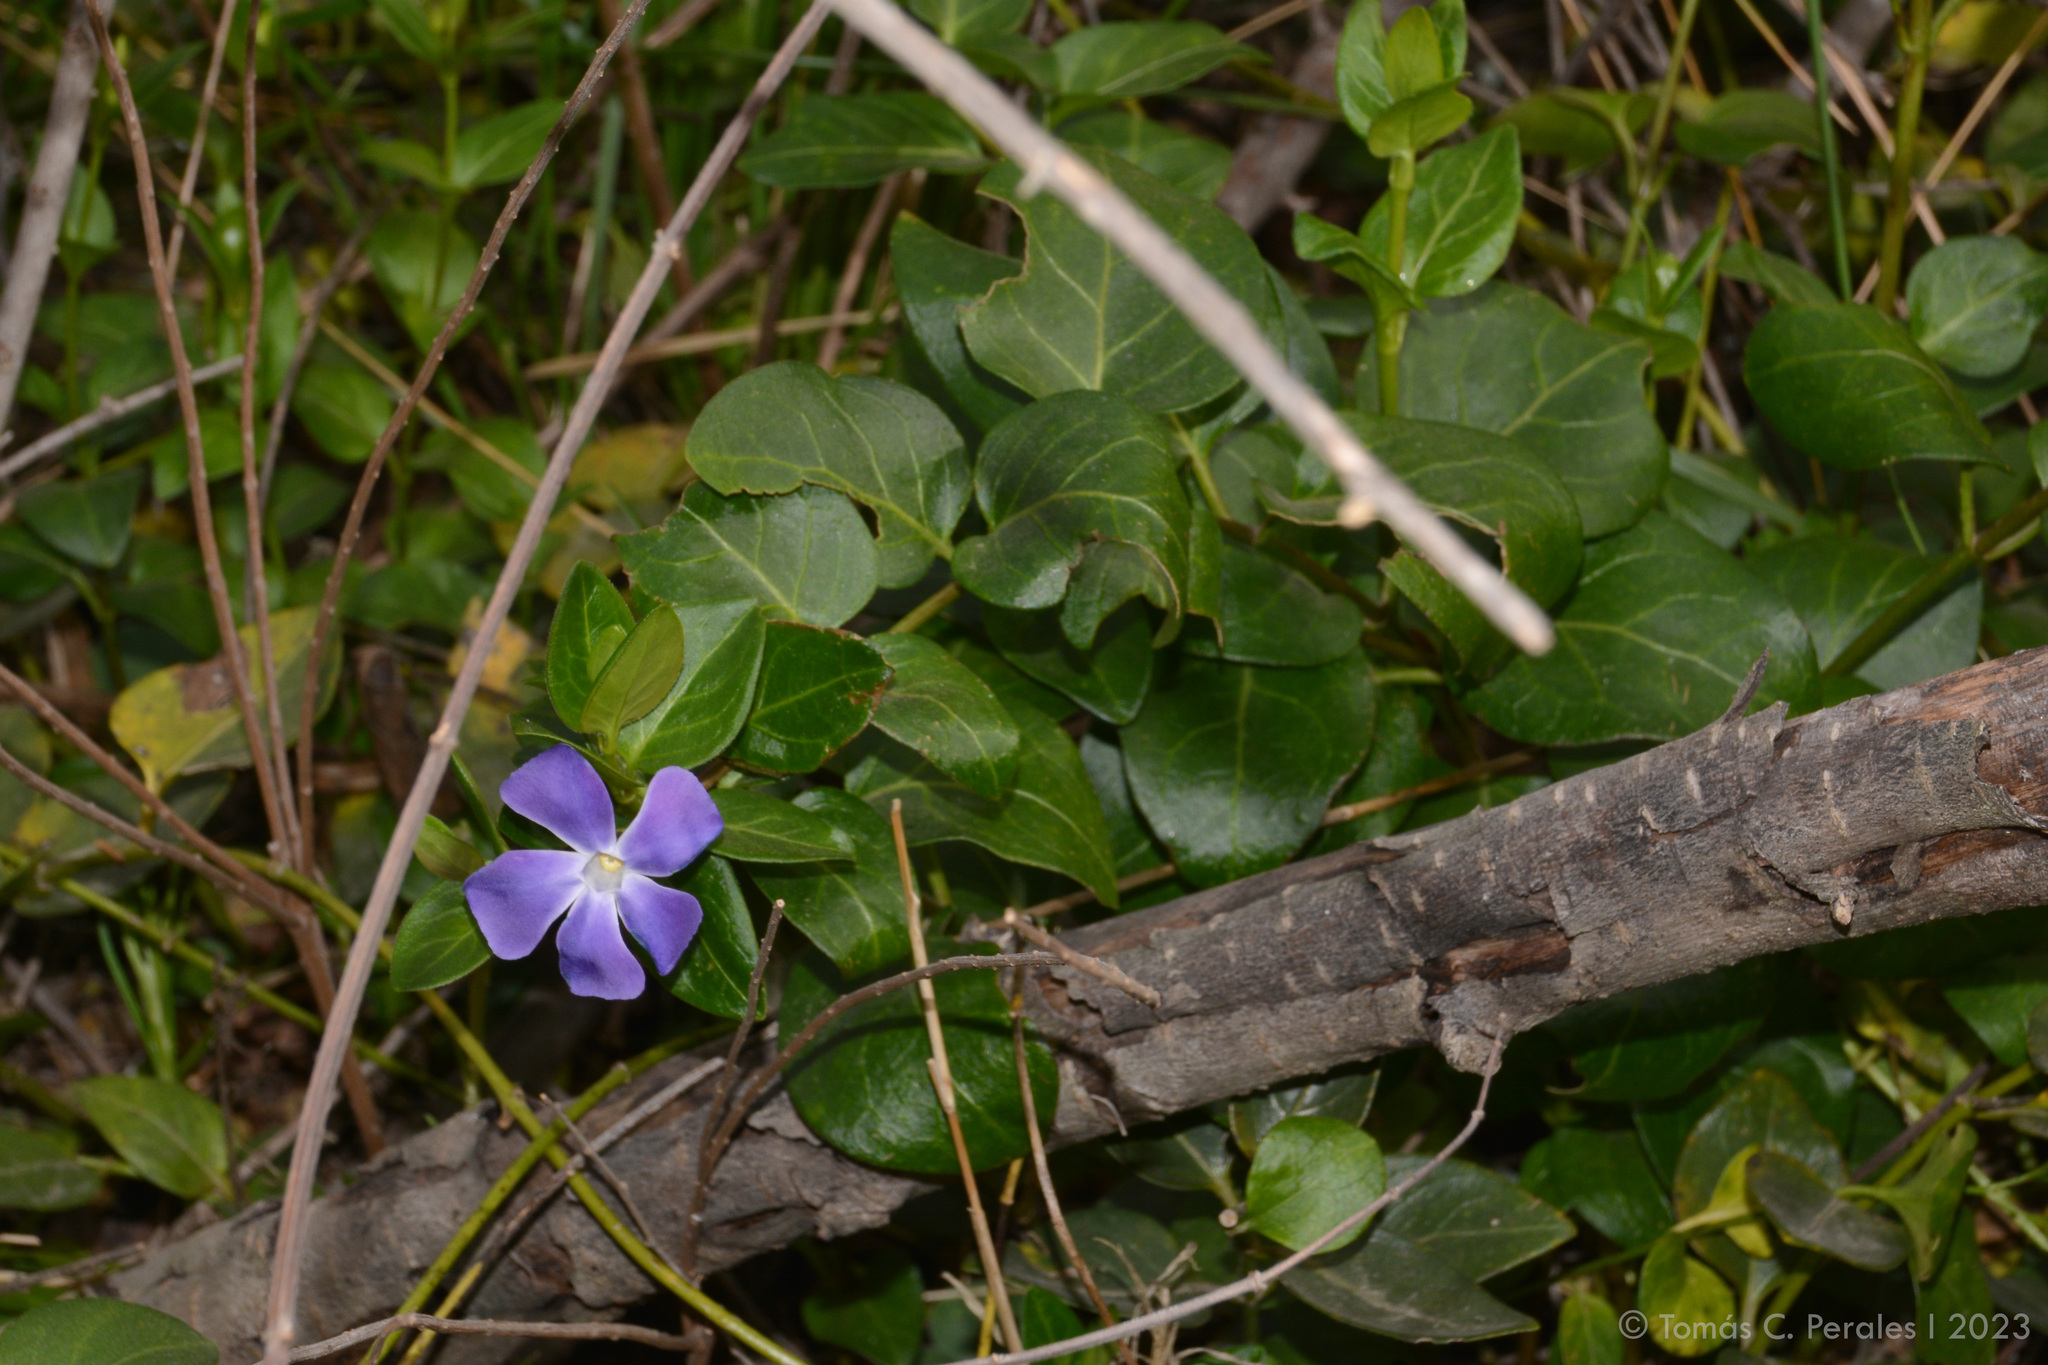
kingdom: Plantae
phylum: Tracheophyta
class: Magnoliopsida
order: Gentianales
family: Apocynaceae
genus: Vinca
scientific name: Vinca major
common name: Greater periwinkle
